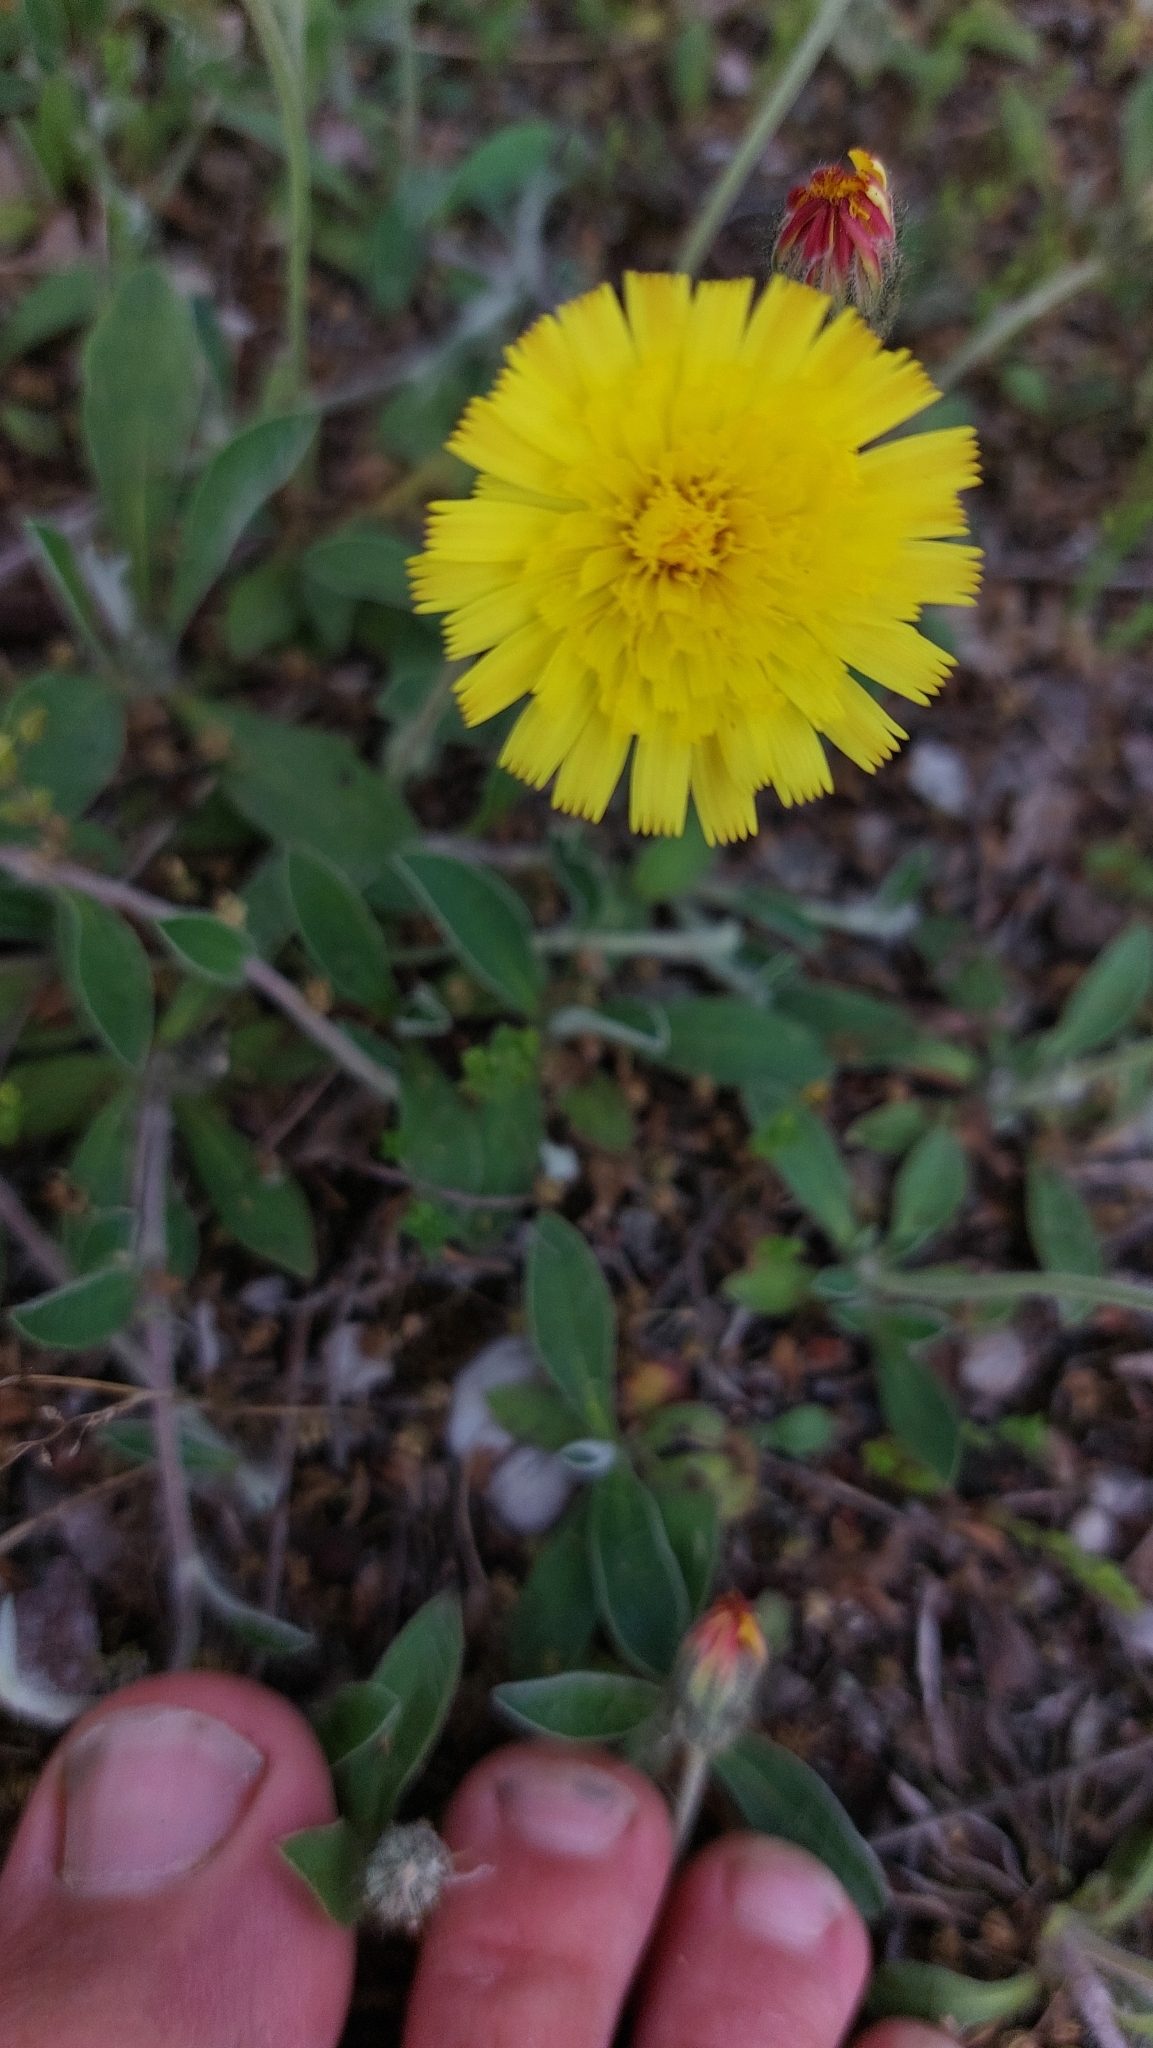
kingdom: Plantae
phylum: Tracheophyta
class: Magnoliopsida
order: Asterales
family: Asteraceae
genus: Pilosella
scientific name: Pilosella officinarum
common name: Mouse-ear hawkweed
